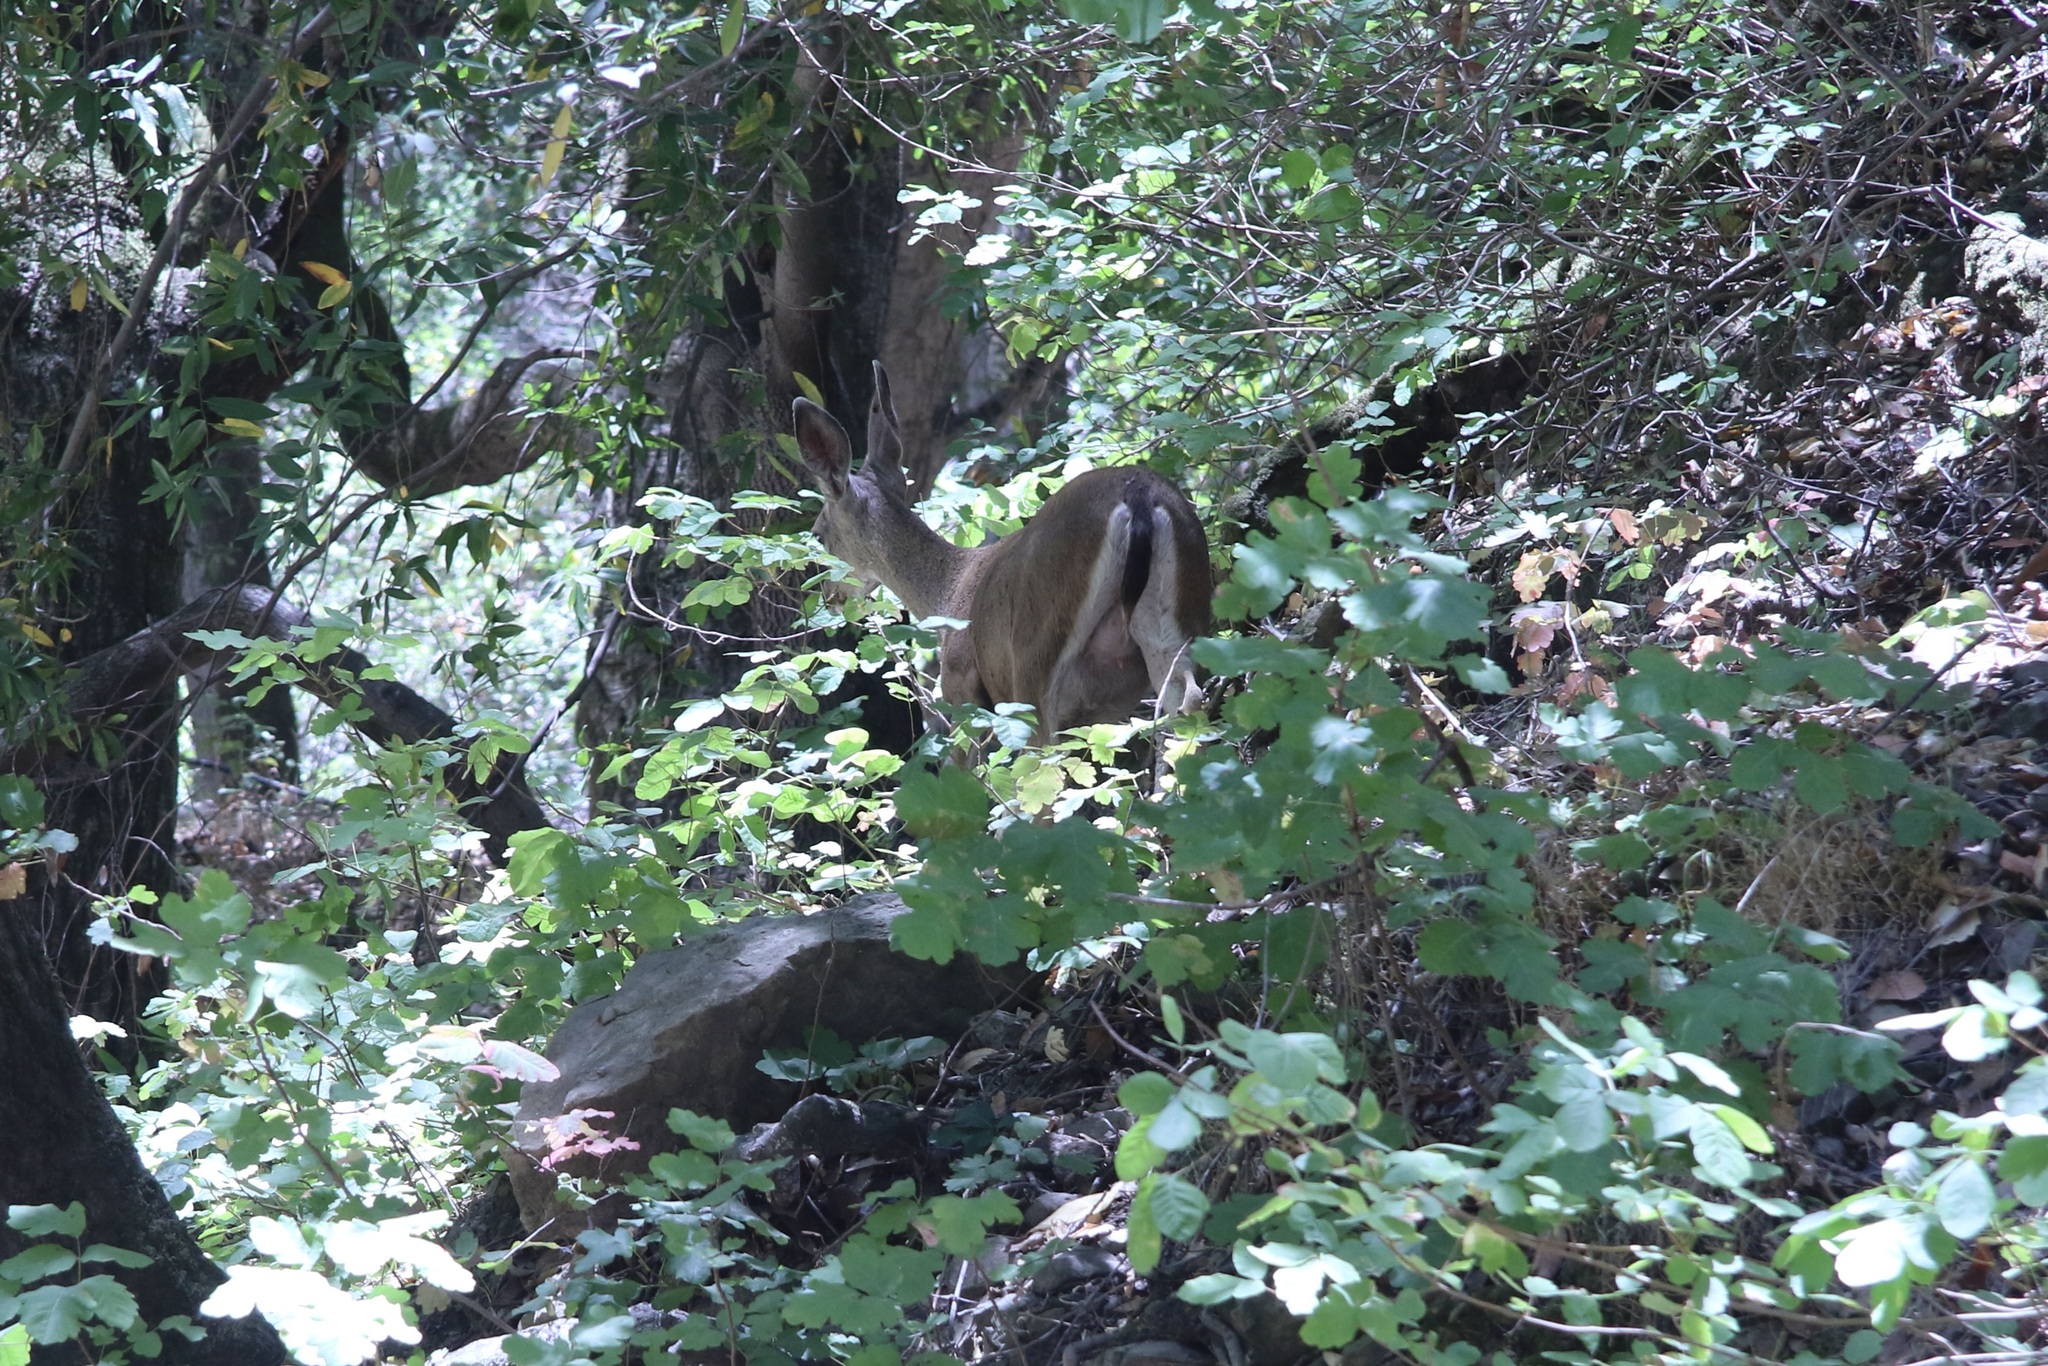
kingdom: Animalia
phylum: Chordata
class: Mammalia
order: Artiodactyla
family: Cervidae
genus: Odocoileus
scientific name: Odocoileus hemionus
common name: Mule deer
